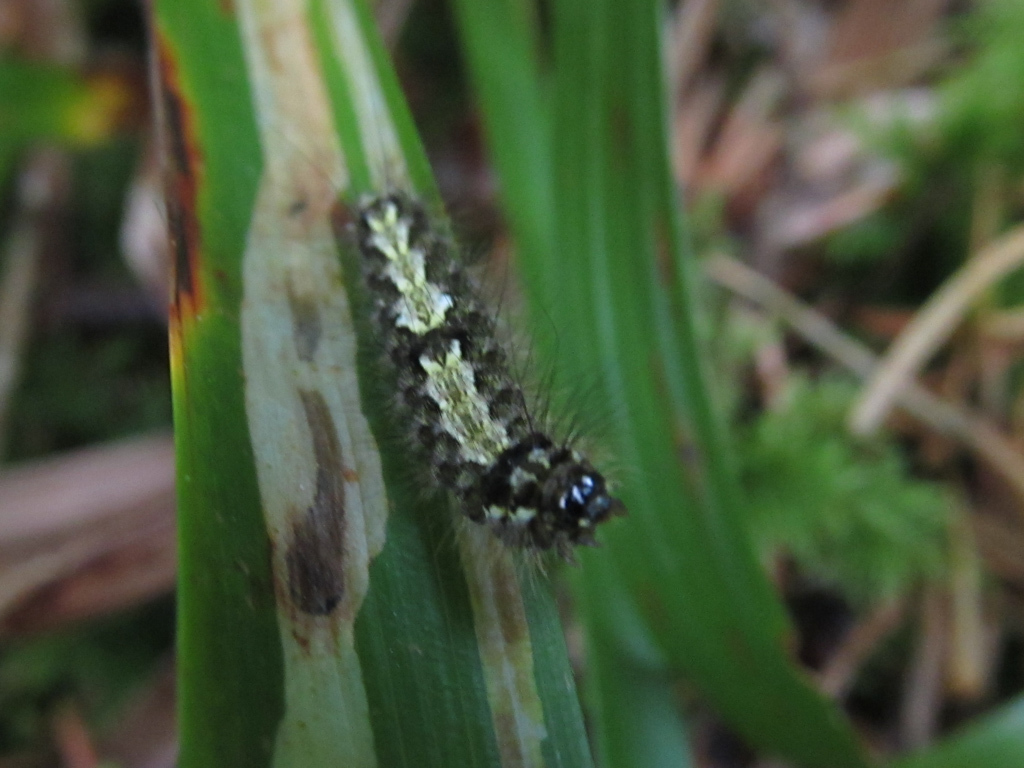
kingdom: Animalia
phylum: Arthropoda
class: Insecta
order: Lepidoptera
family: Erebidae
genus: Katha
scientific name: Katha depressa
